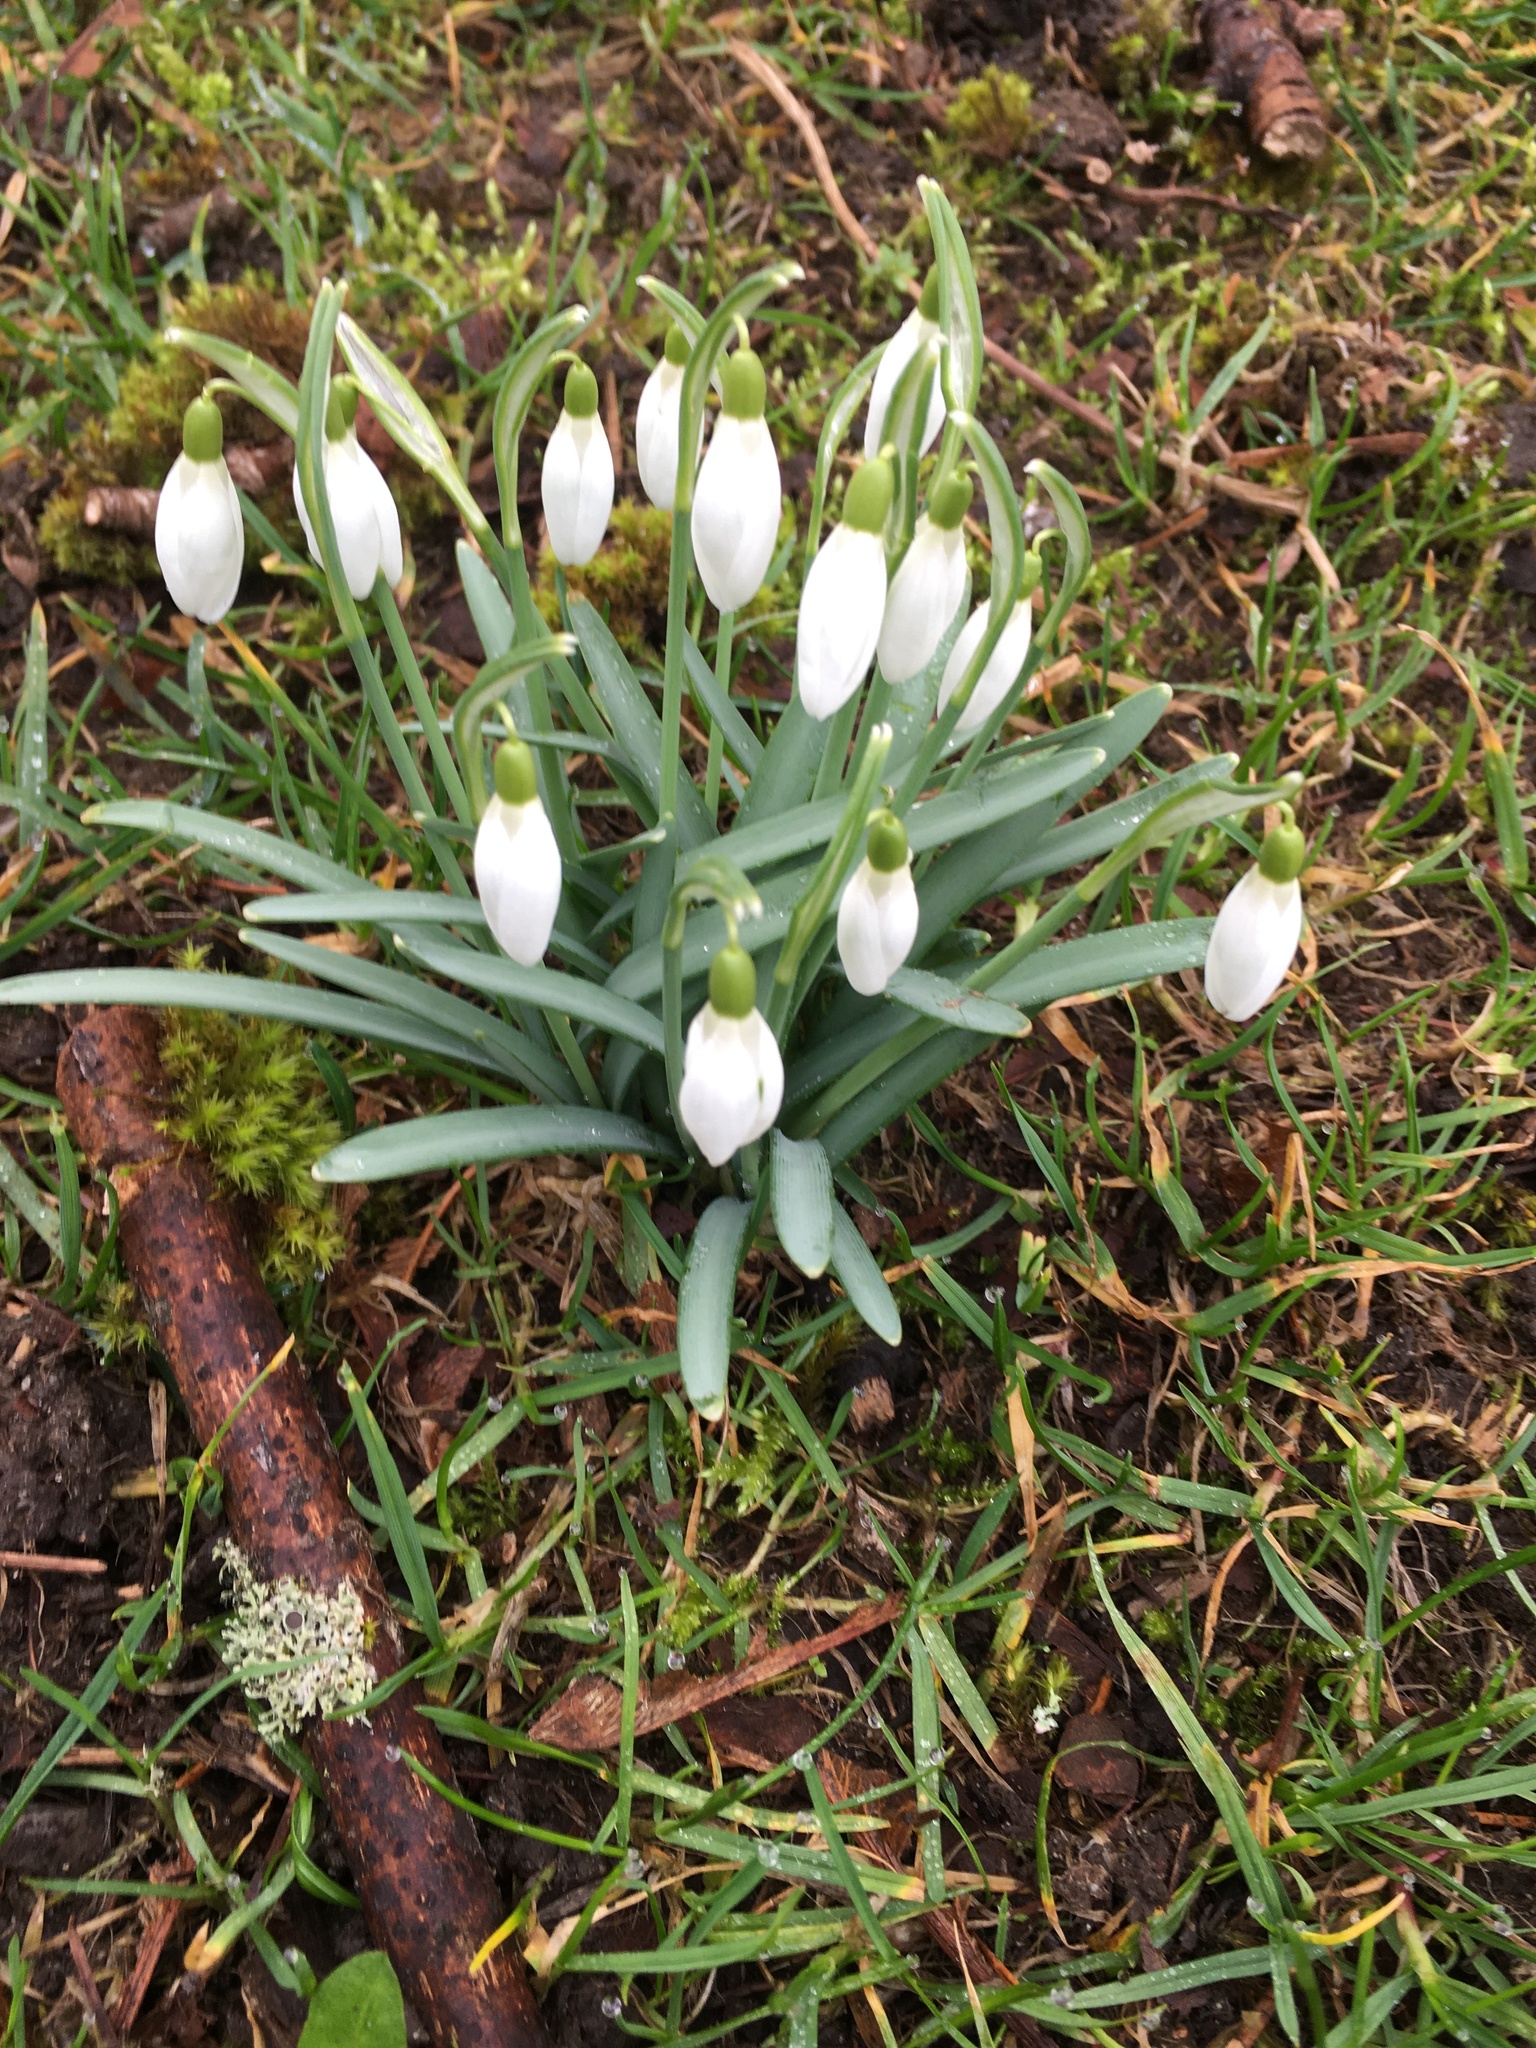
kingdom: Plantae
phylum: Tracheophyta
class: Liliopsida
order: Asparagales
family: Amaryllidaceae
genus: Galanthus
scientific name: Galanthus nivalis
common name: Snowdrop
